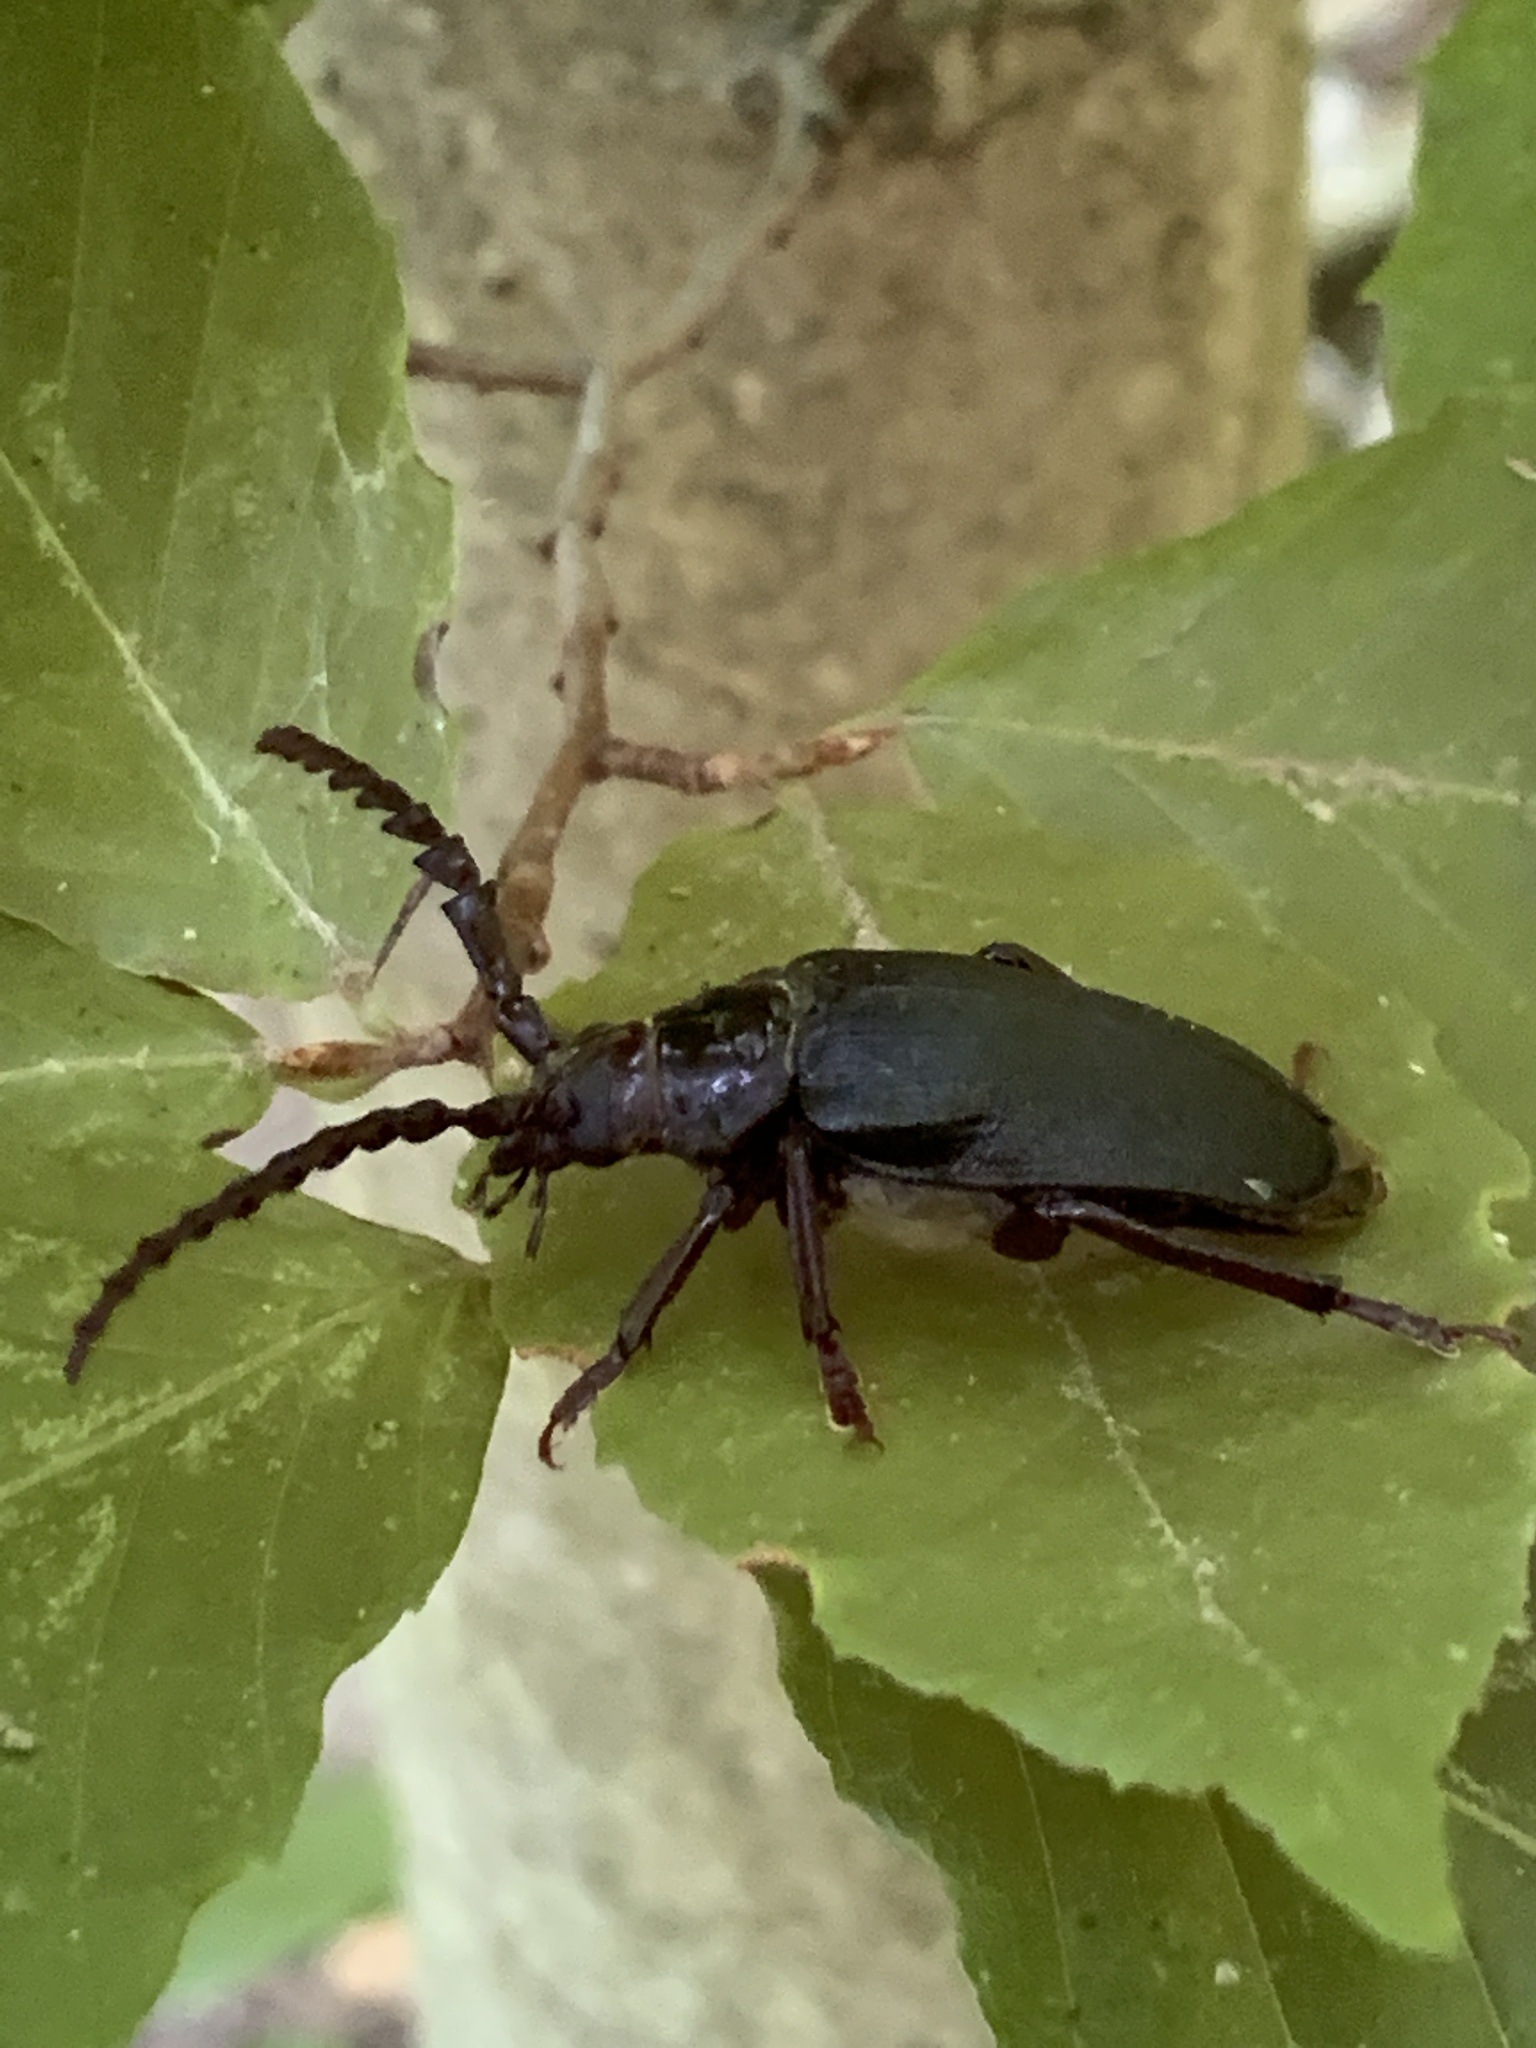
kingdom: Animalia
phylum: Arthropoda
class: Insecta
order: Coleoptera
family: Cerambycidae
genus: Prionus
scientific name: Prionus laticollis
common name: Broad necked prionus
